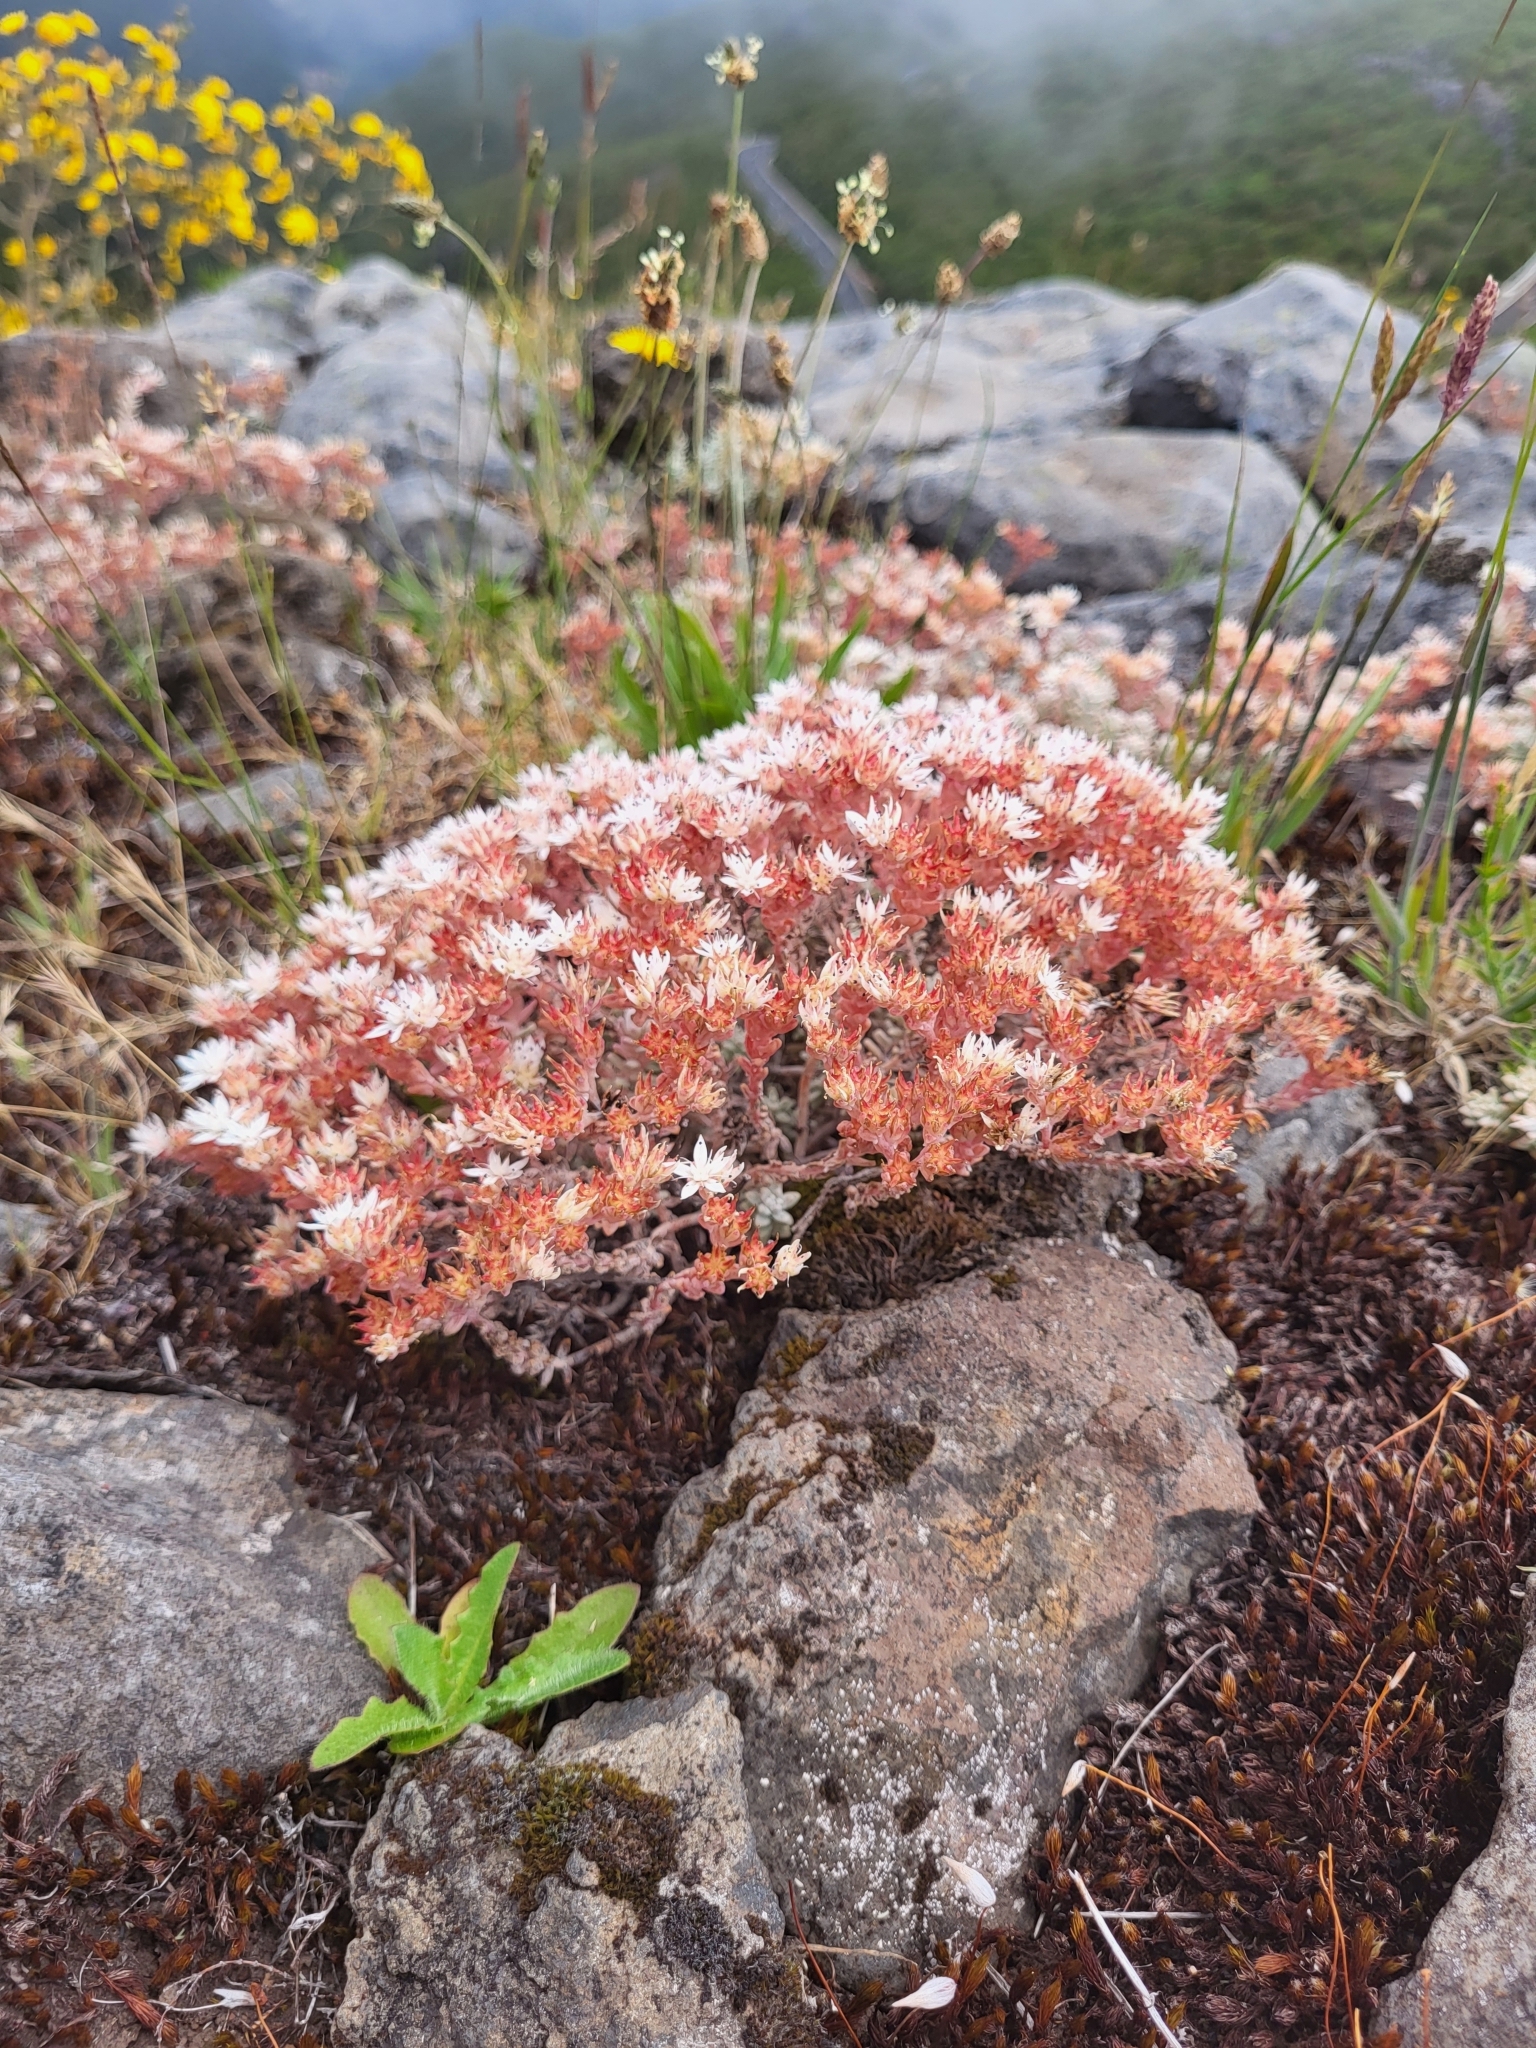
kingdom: Plantae
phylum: Tracheophyta
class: Magnoliopsida
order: Saxifragales
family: Crassulaceae
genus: Sedum
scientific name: Sedum farinosum
